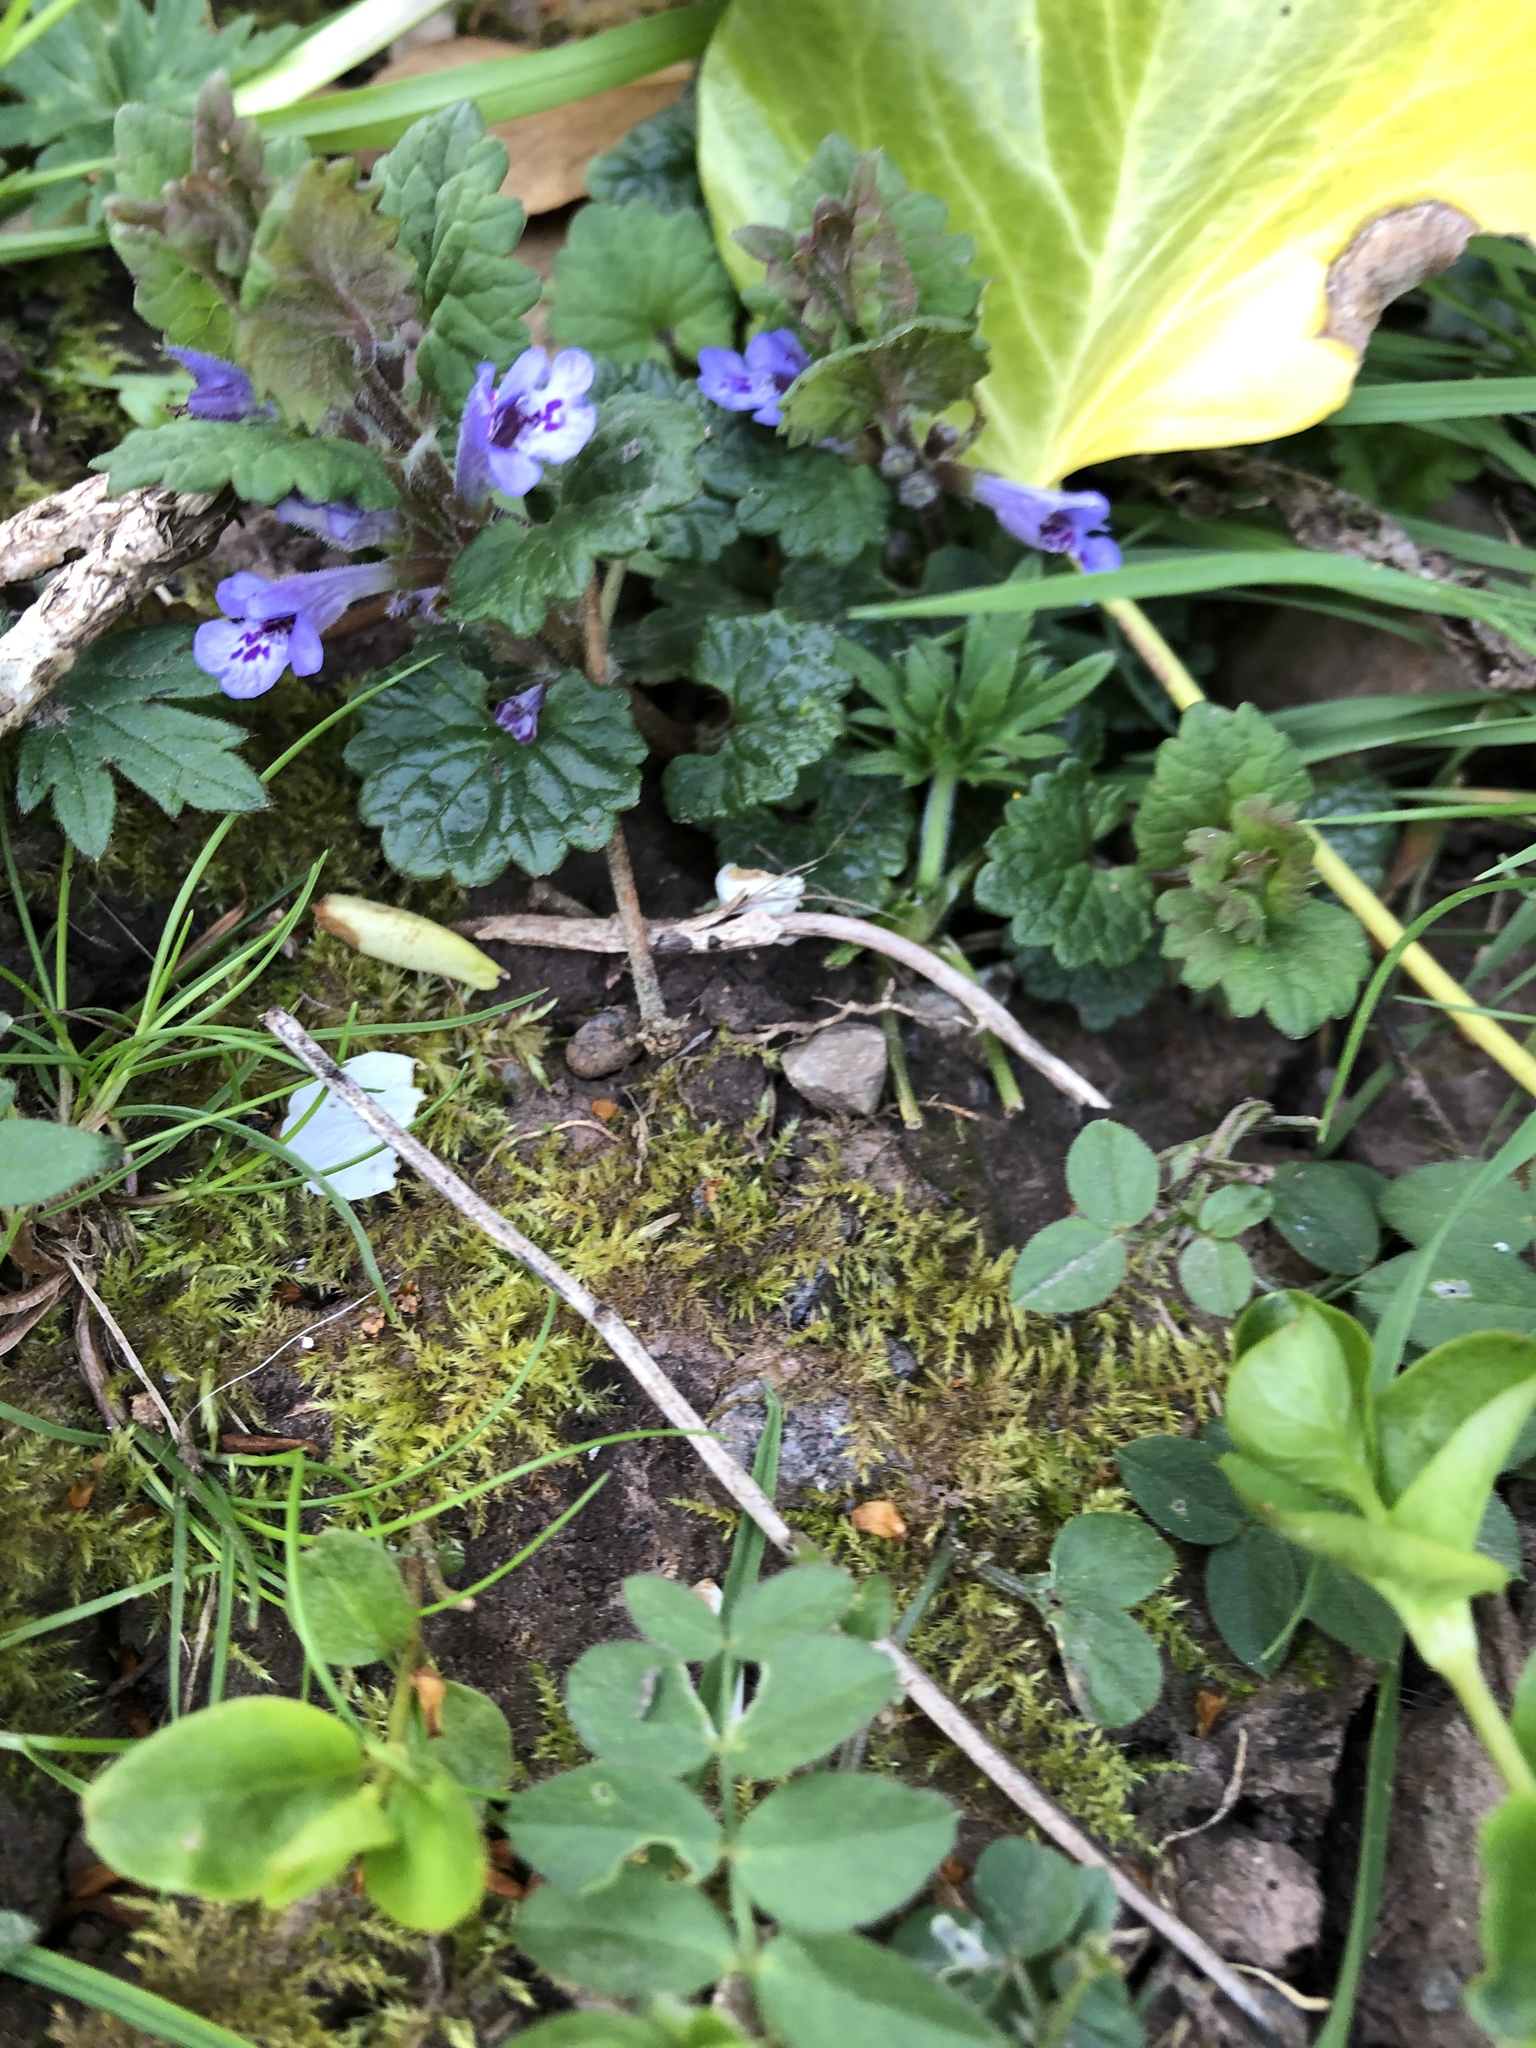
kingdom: Plantae
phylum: Tracheophyta
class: Magnoliopsida
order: Lamiales
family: Lamiaceae
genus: Glechoma
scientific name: Glechoma hederacea
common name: Ground ivy
